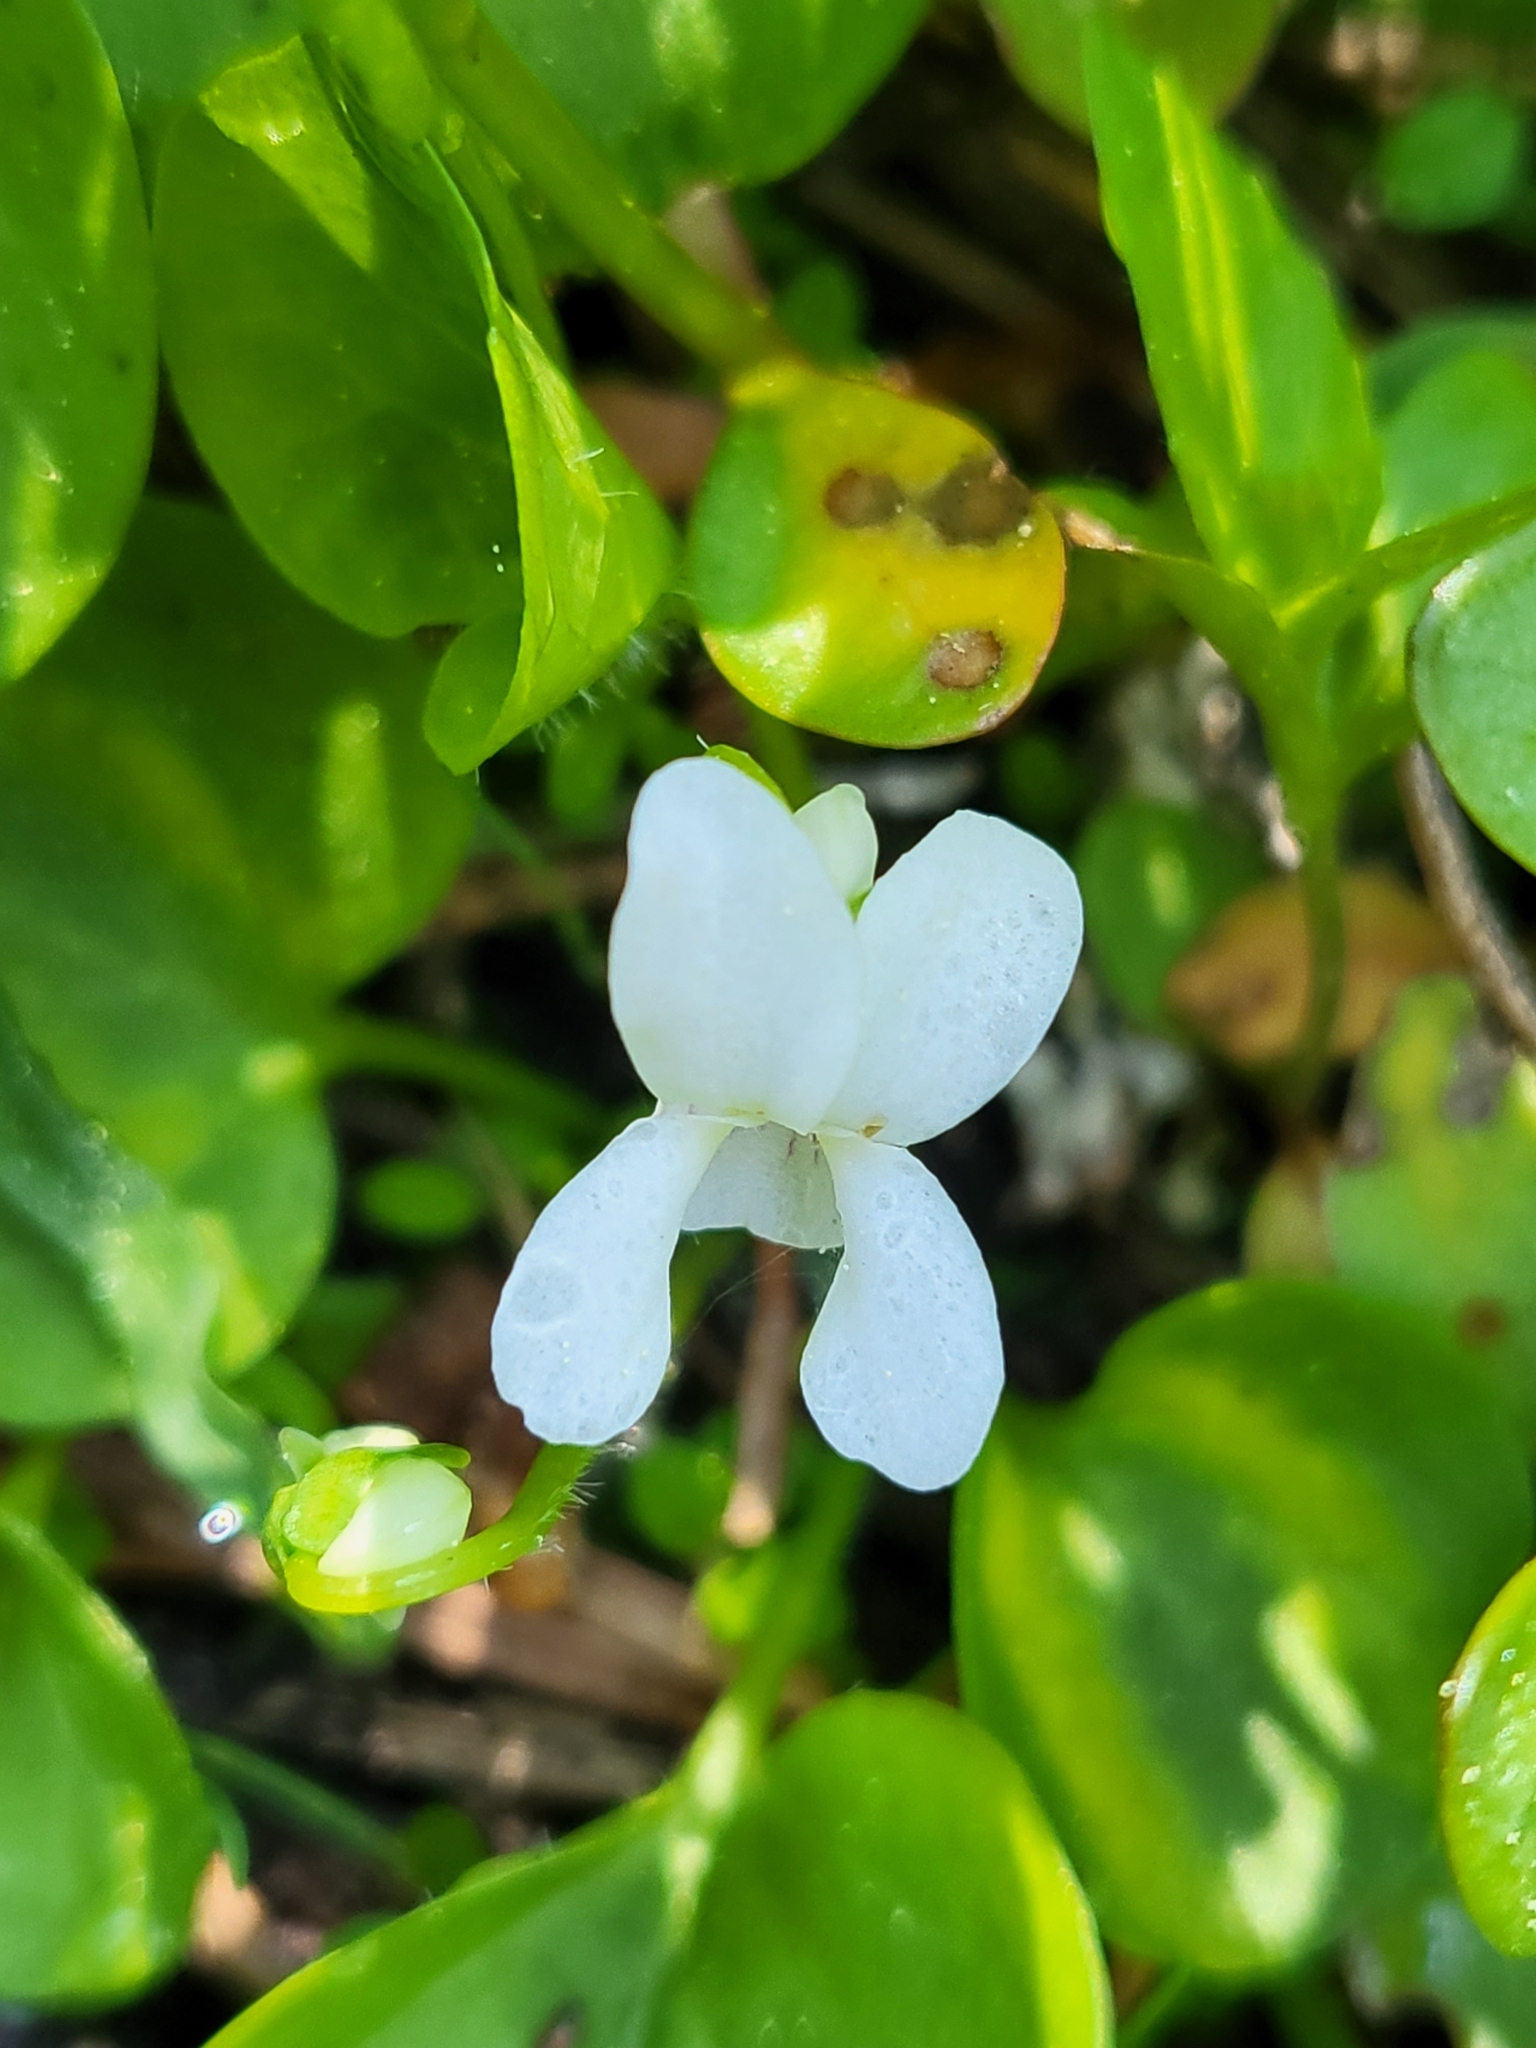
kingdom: Plantae
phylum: Tracheophyta
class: Magnoliopsida
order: Malpighiales
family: Violaceae
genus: Viola
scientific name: Viola macloskeyi
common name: Macloskey's violet
